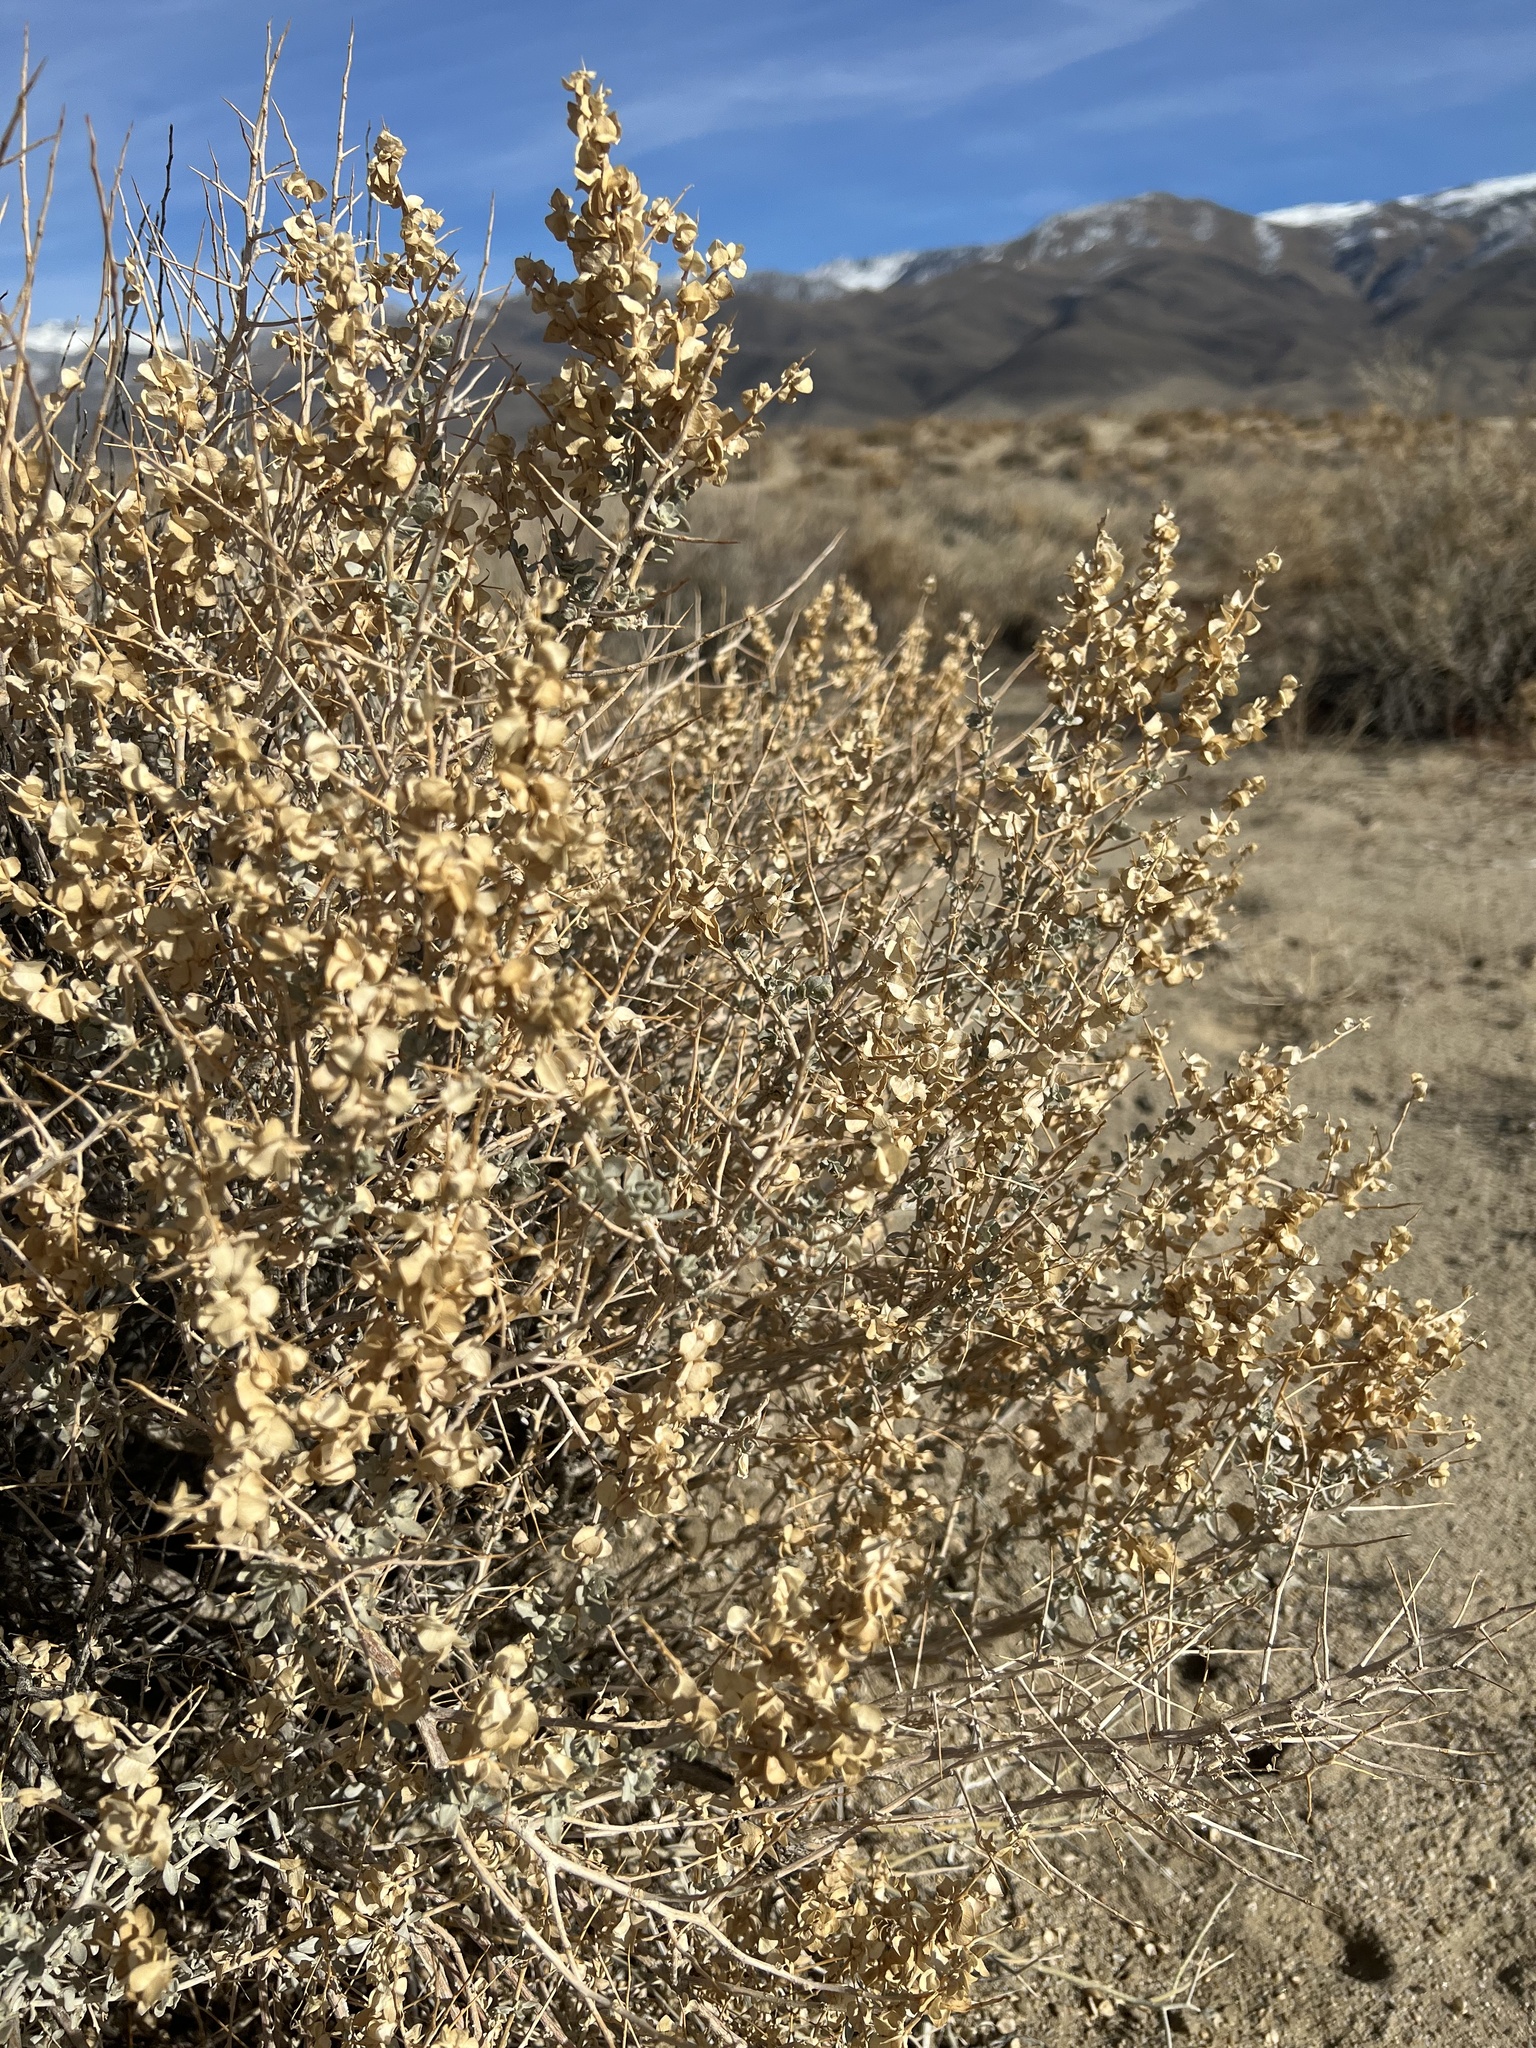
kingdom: Plantae
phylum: Tracheophyta
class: Magnoliopsida
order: Caryophyllales
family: Amaranthaceae
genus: Atriplex
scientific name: Atriplex confertifolia
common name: Shadscale
